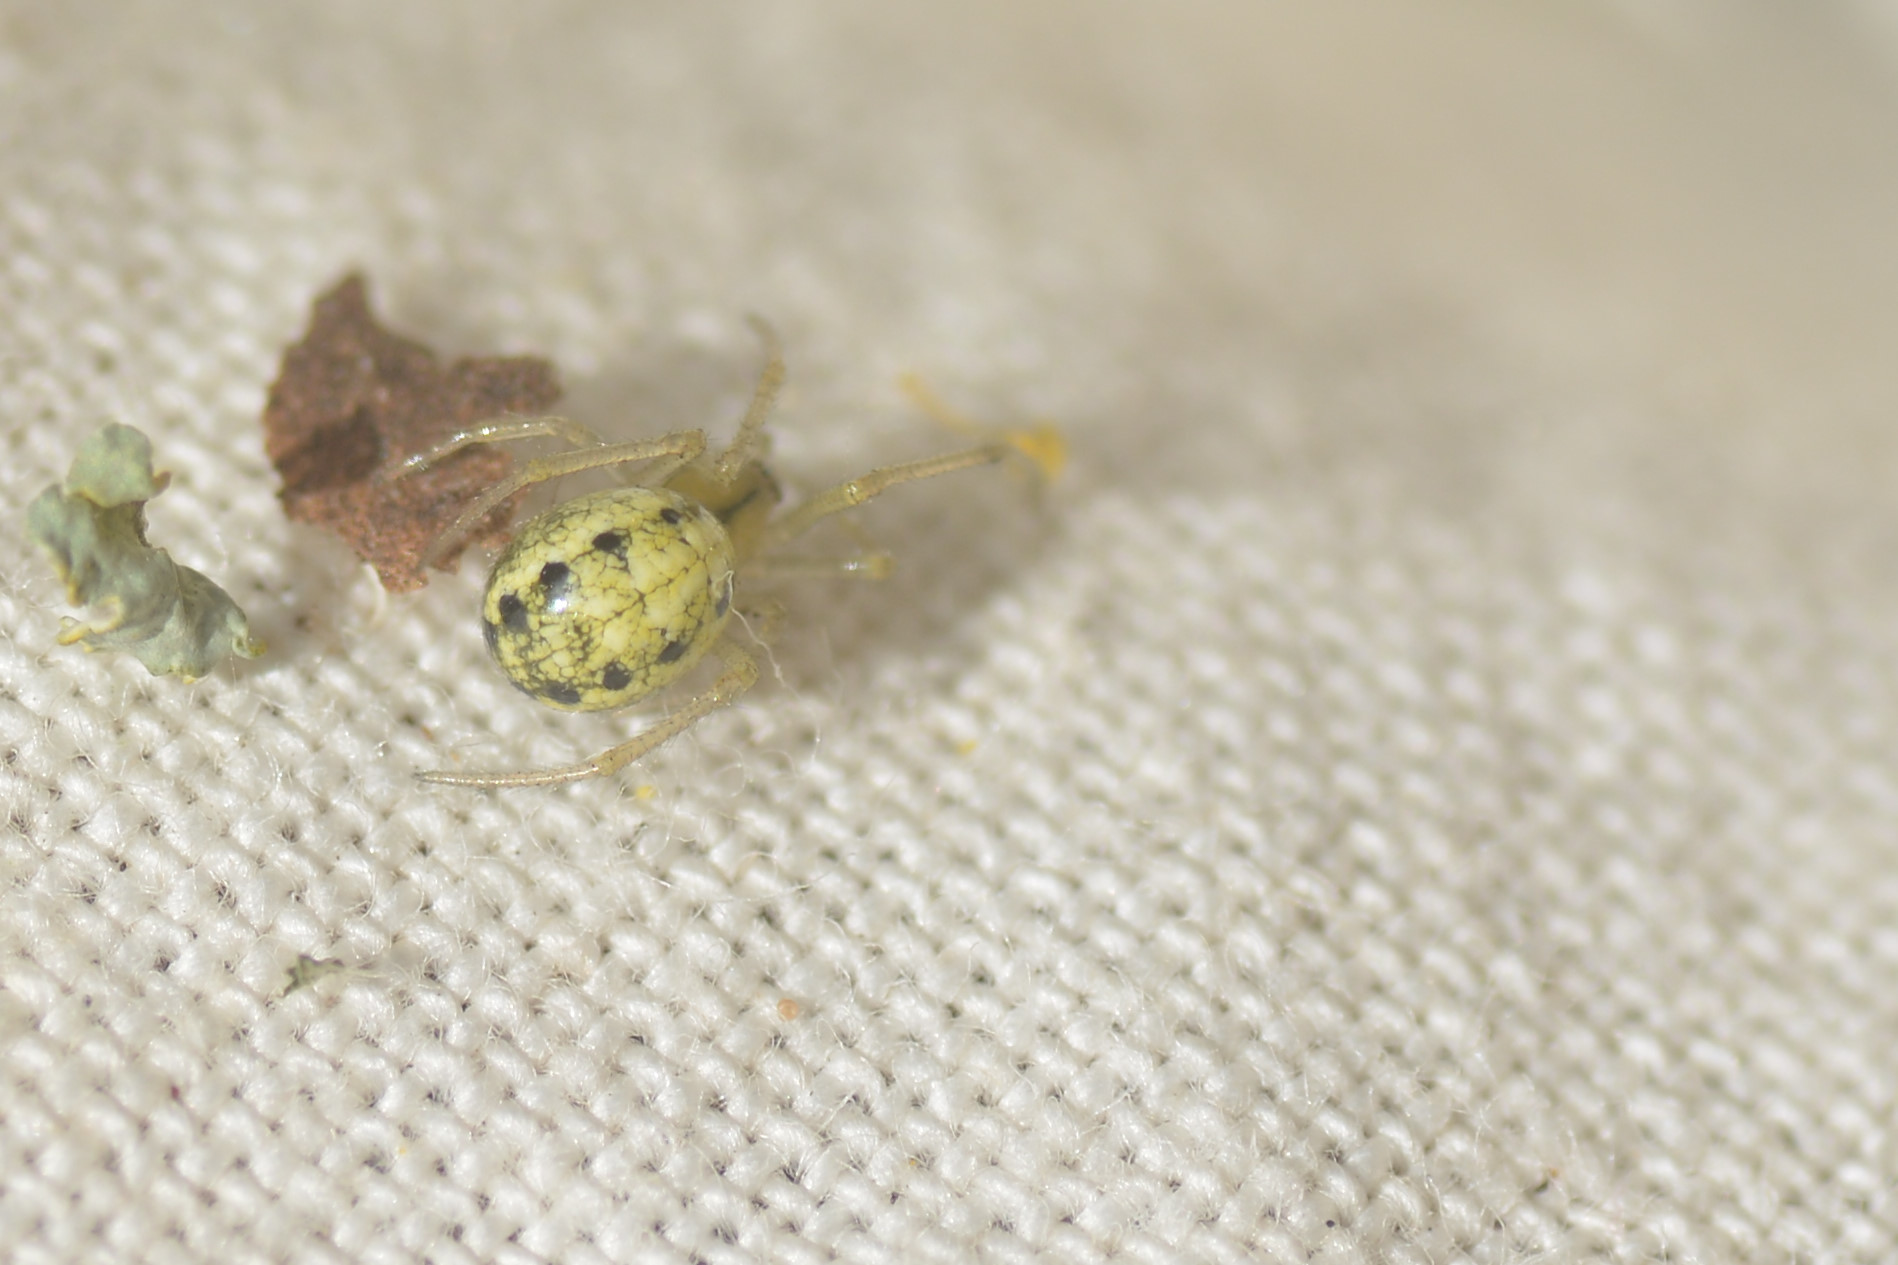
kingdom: Animalia
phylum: Arthropoda
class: Arachnida
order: Araneae
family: Theridiidae
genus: Enoplognatha
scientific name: Enoplognatha
